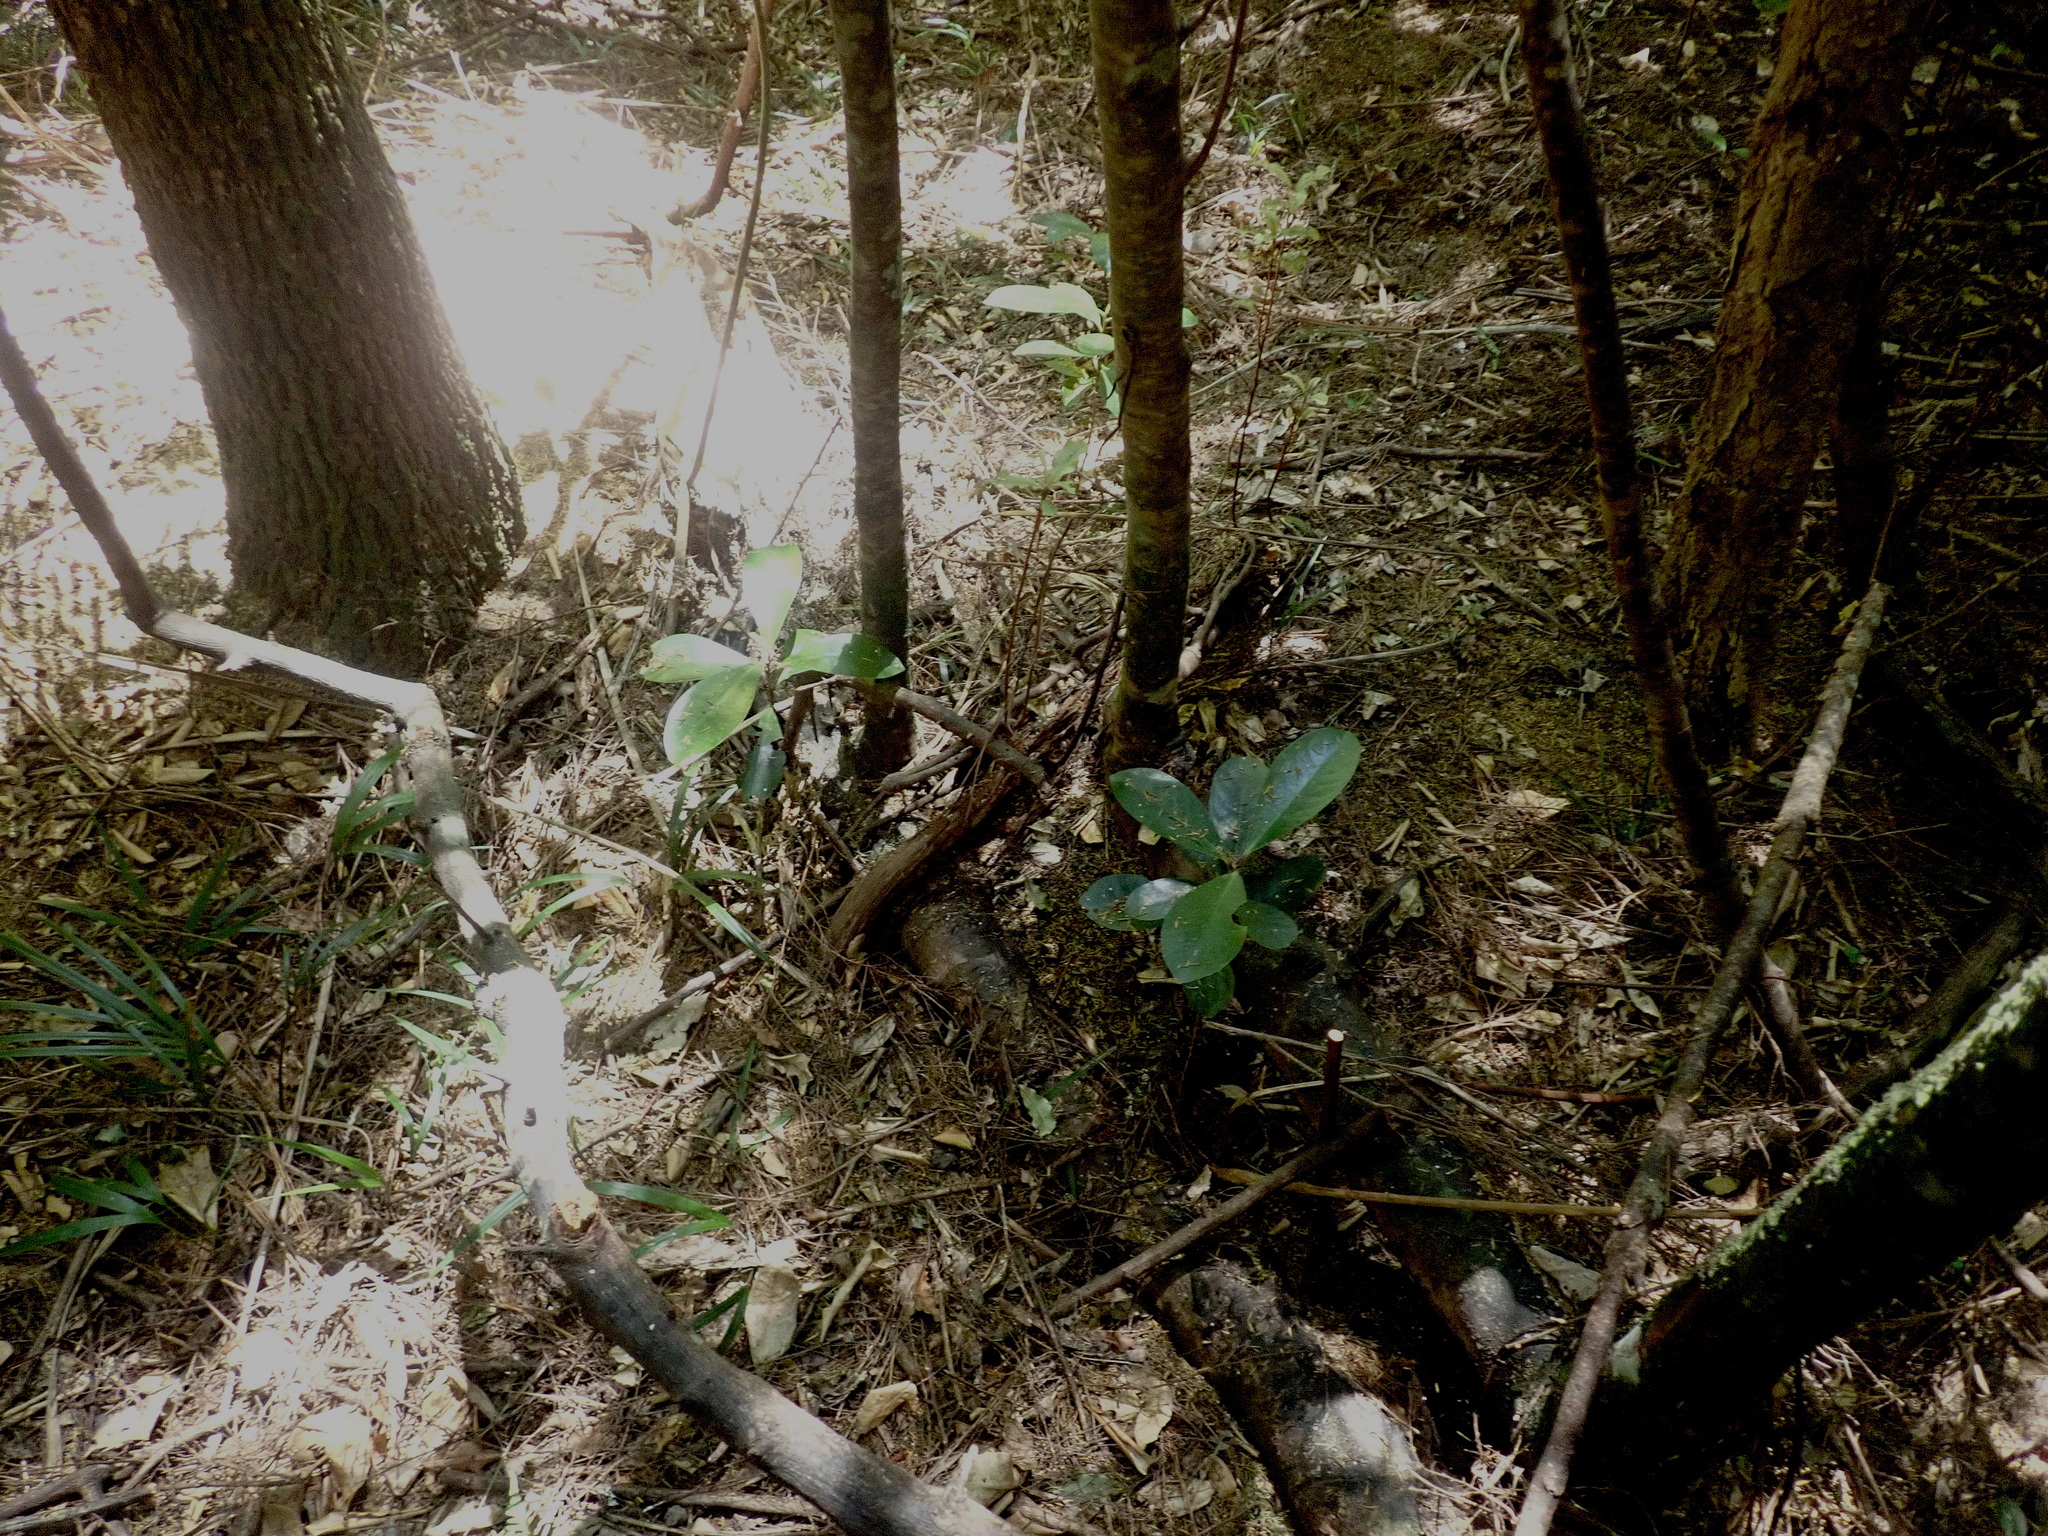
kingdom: Plantae
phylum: Tracheophyta
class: Liliopsida
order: Arecales
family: Arecaceae
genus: Rhopalostylis
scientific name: Rhopalostylis sapida
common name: Feather-duster palm
